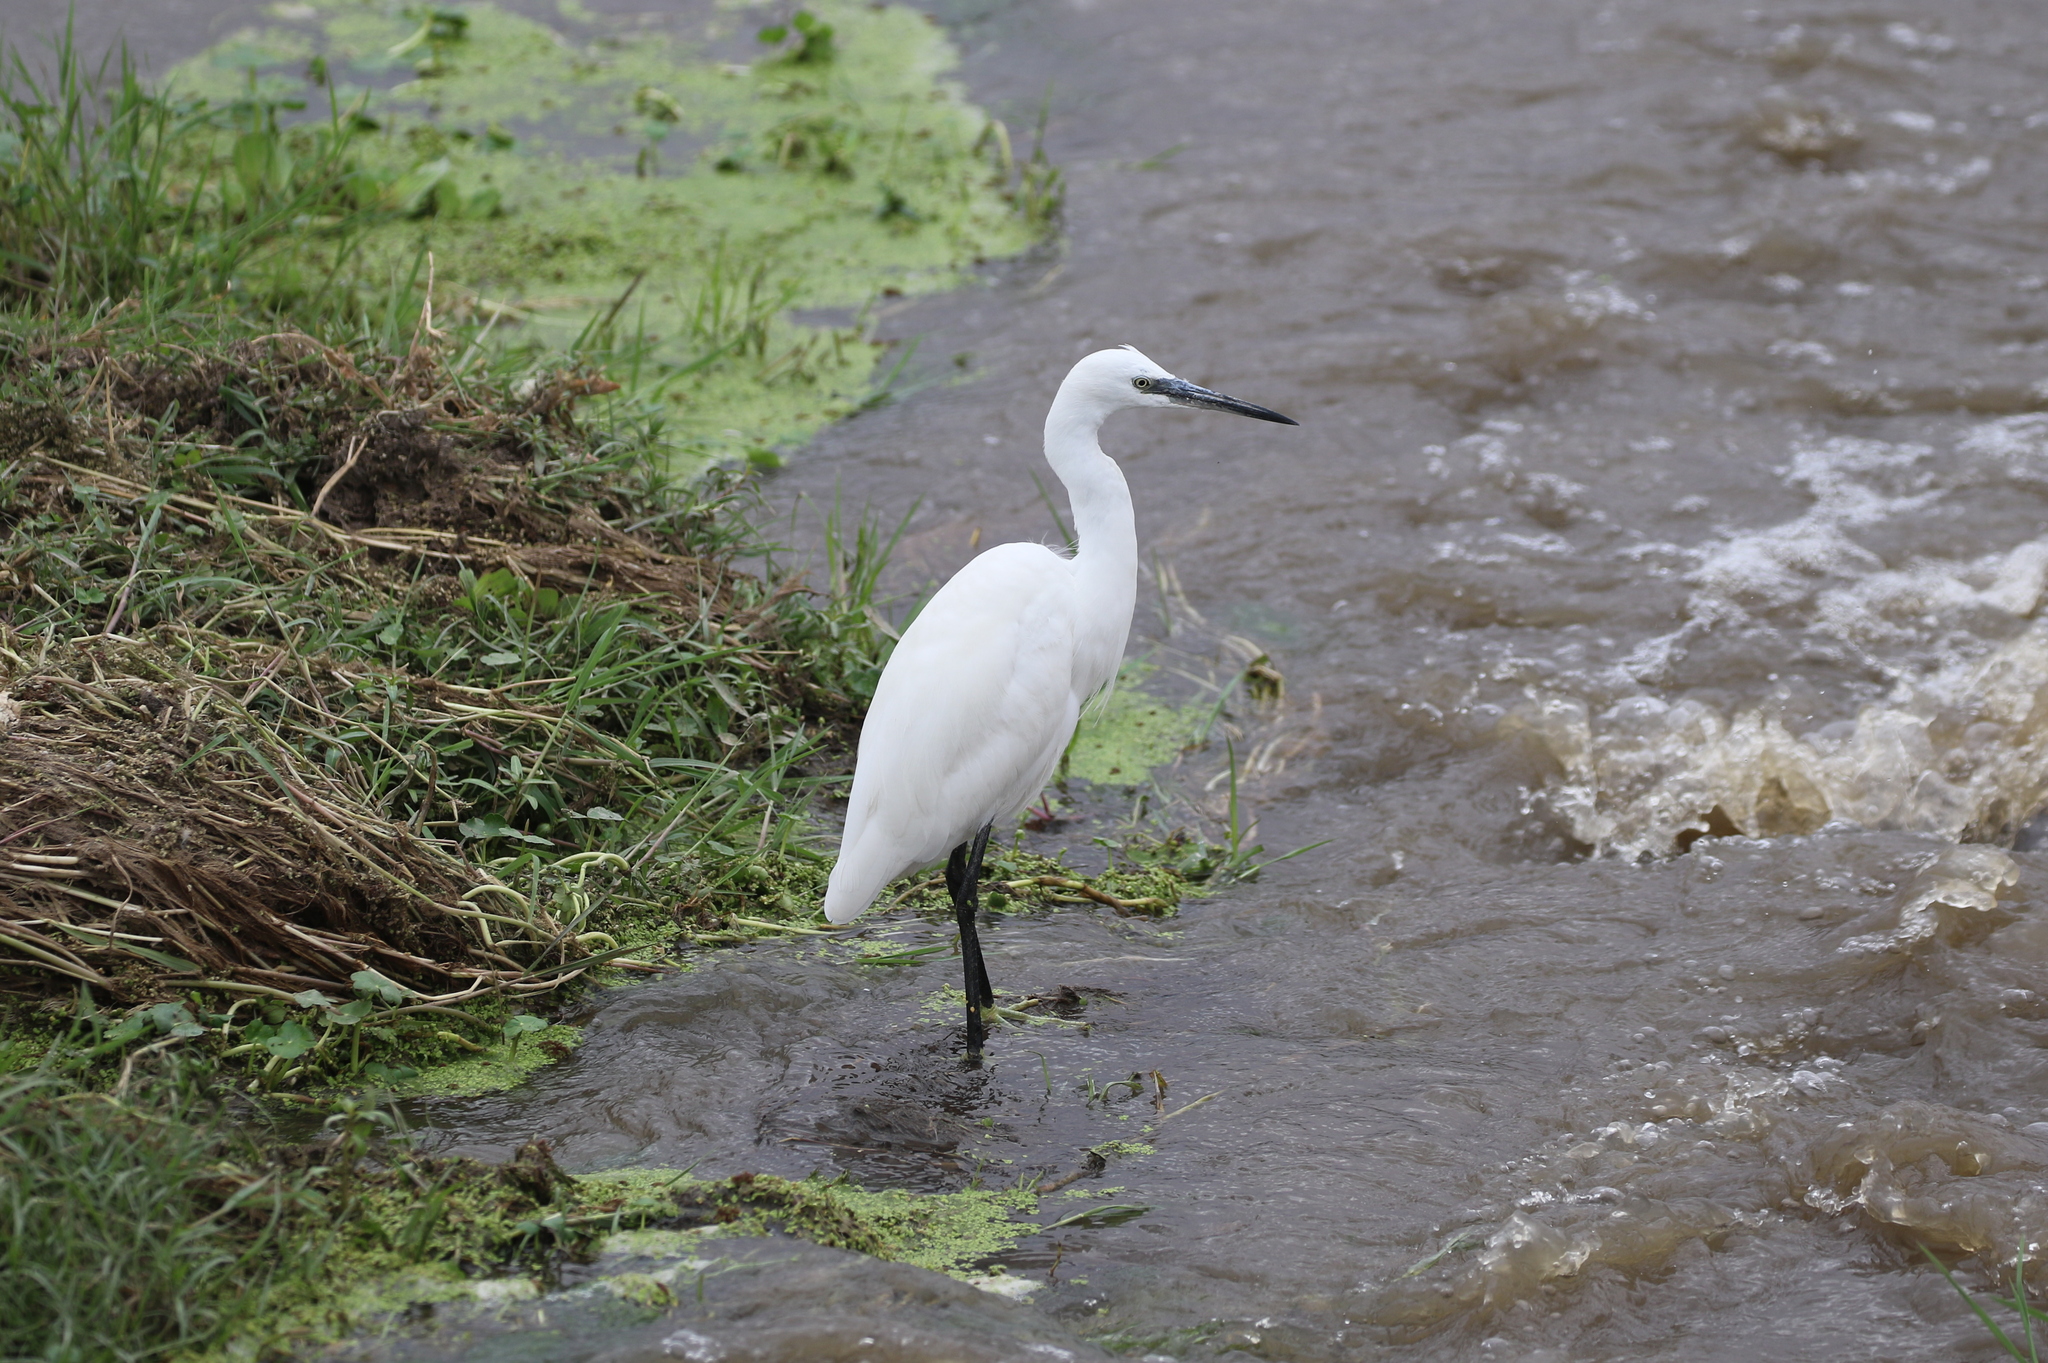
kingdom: Animalia
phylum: Chordata
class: Aves
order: Pelecaniformes
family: Ardeidae
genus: Egretta
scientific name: Egretta garzetta
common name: Little egret
